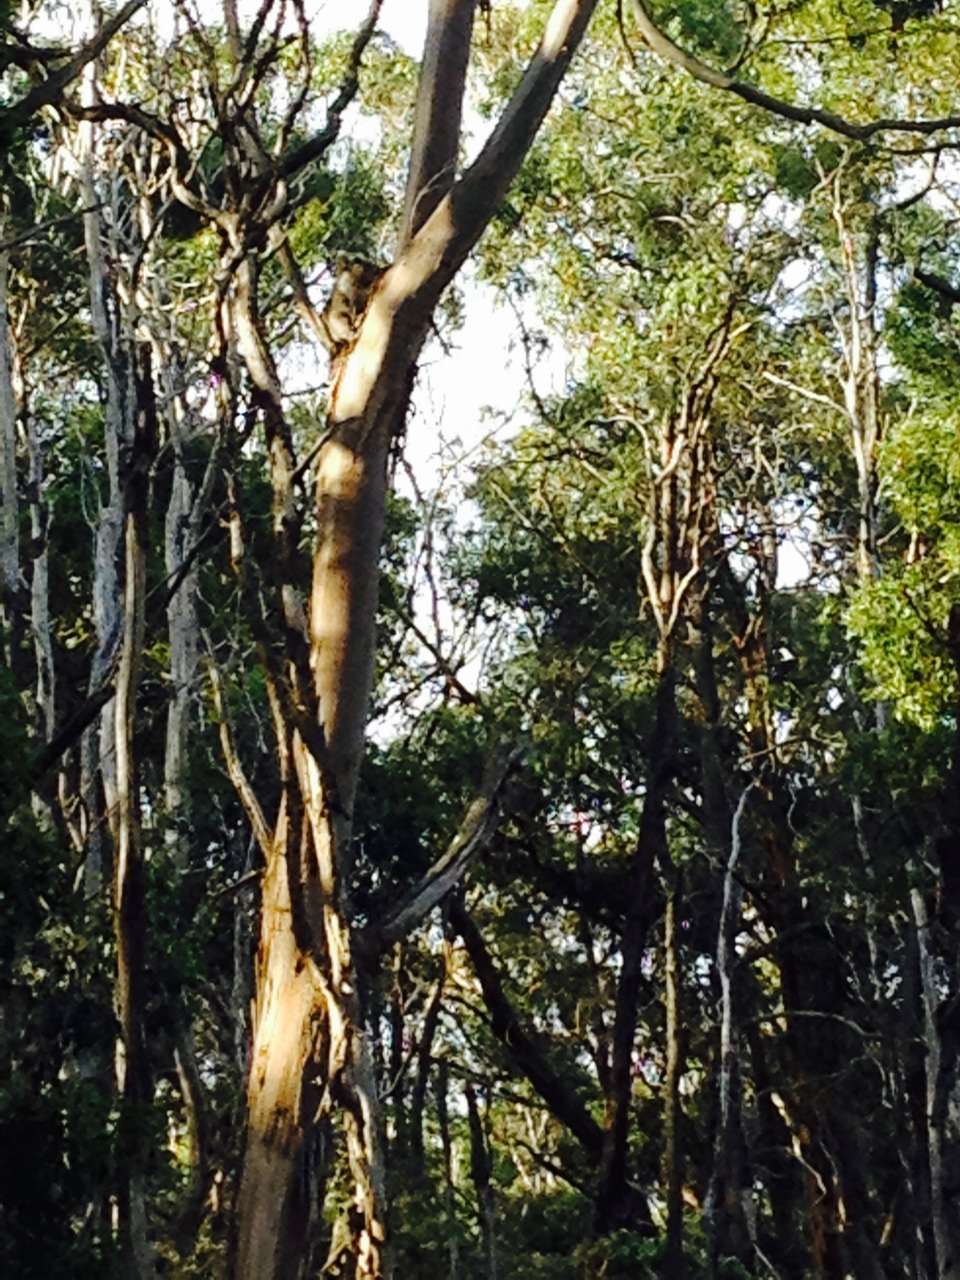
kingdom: Animalia
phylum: Chordata
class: Mammalia
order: Diprotodontia
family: Phascolarctidae
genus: Phascolarctos
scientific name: Phascolarctos cinereus
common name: Koala
